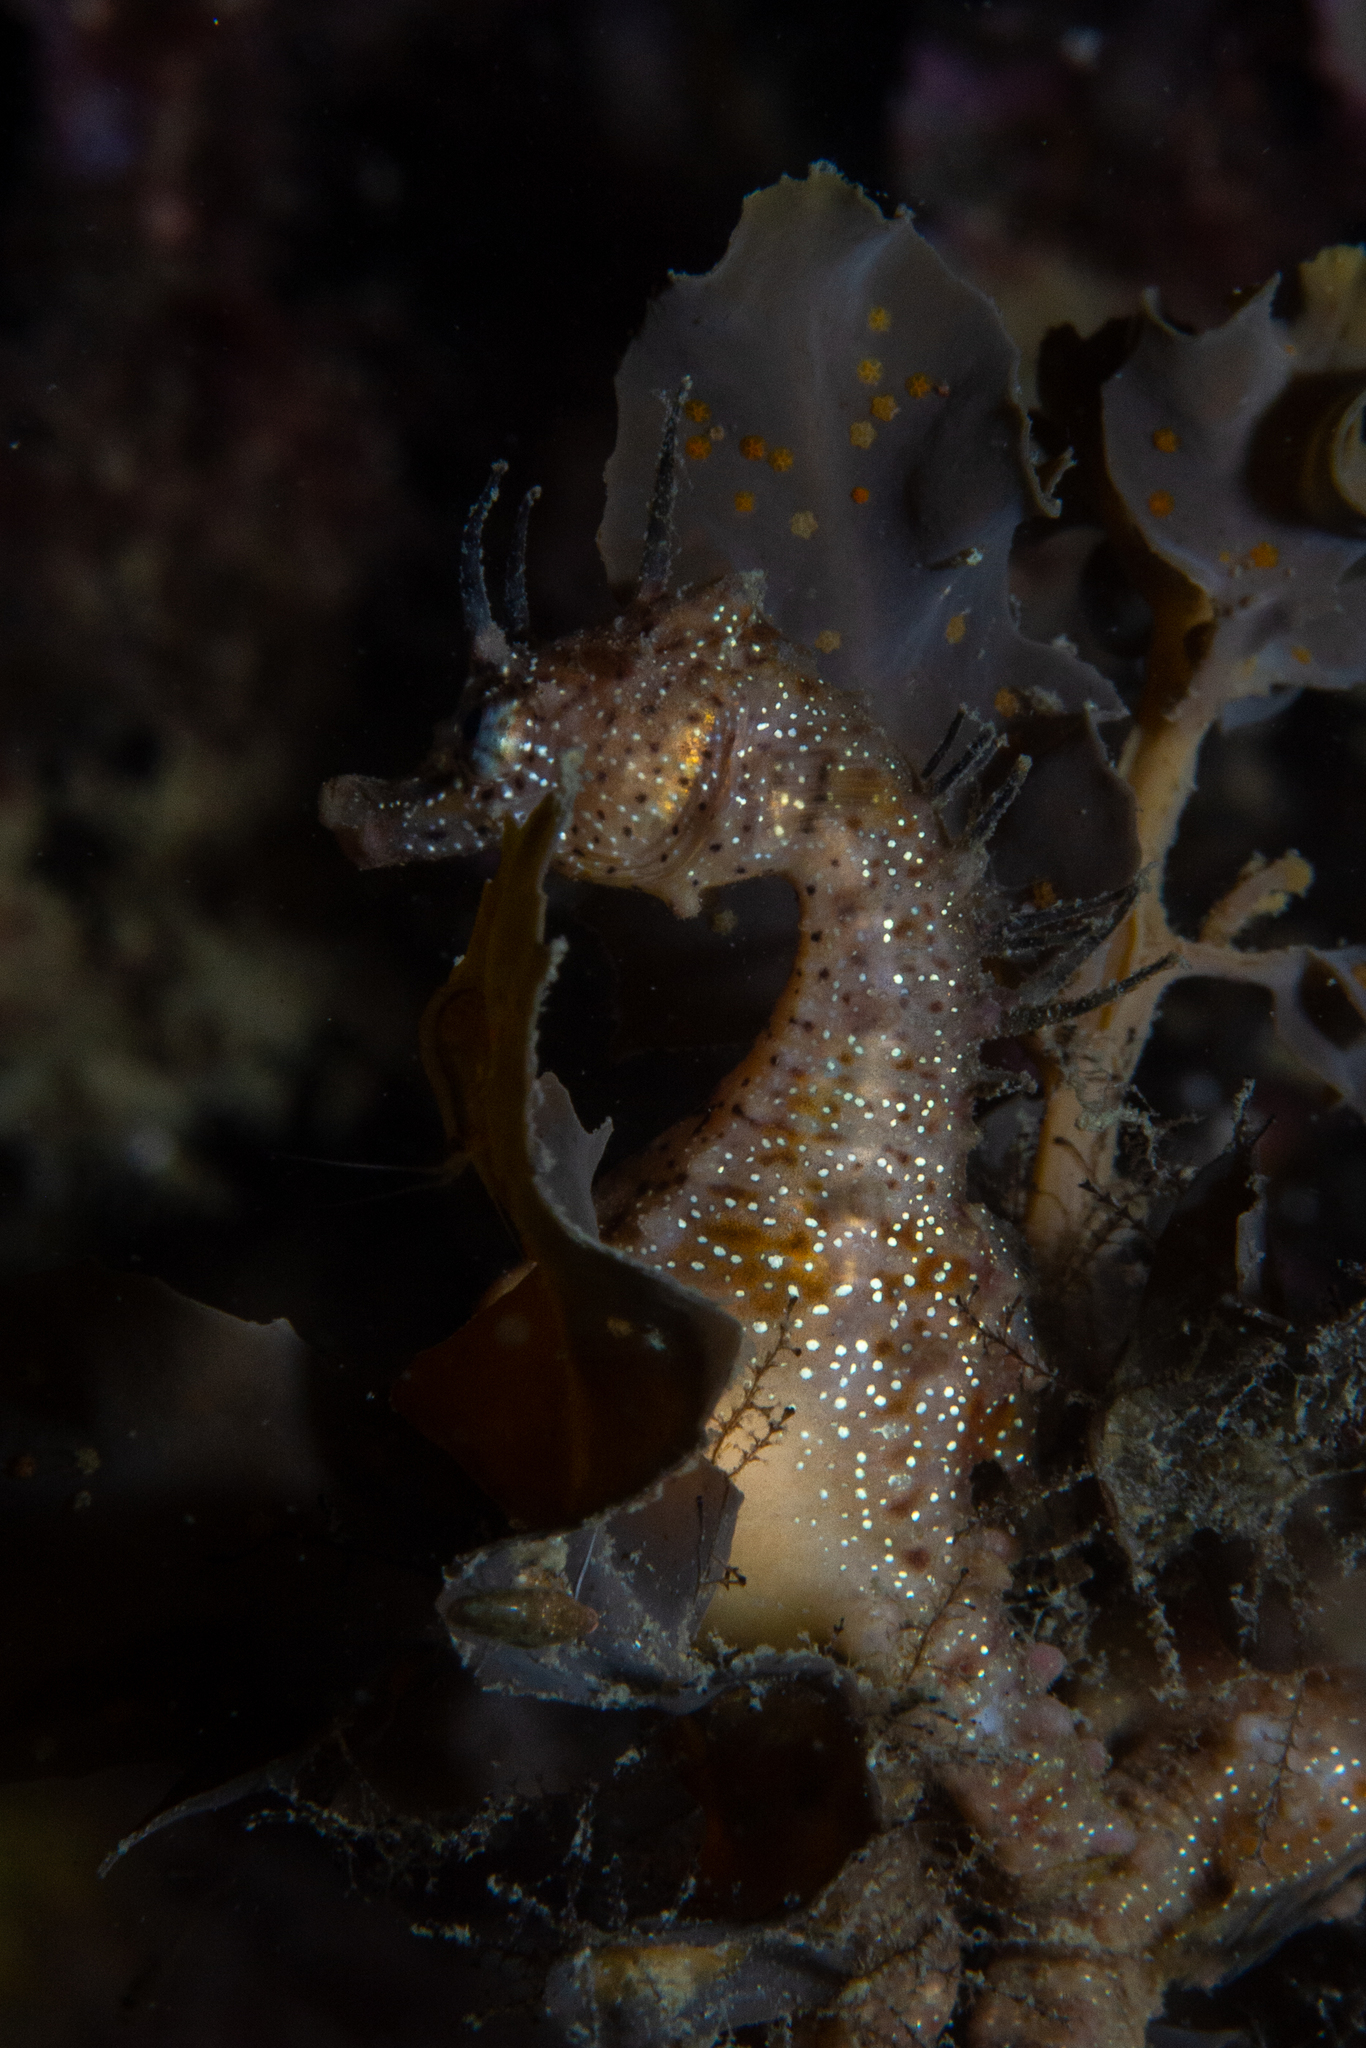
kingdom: Animalia
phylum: Chordata
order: Syngnathiformes
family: Syngnathidae
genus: Hippocampus
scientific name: Hippocampus breviceps
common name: Knobby seahorse
